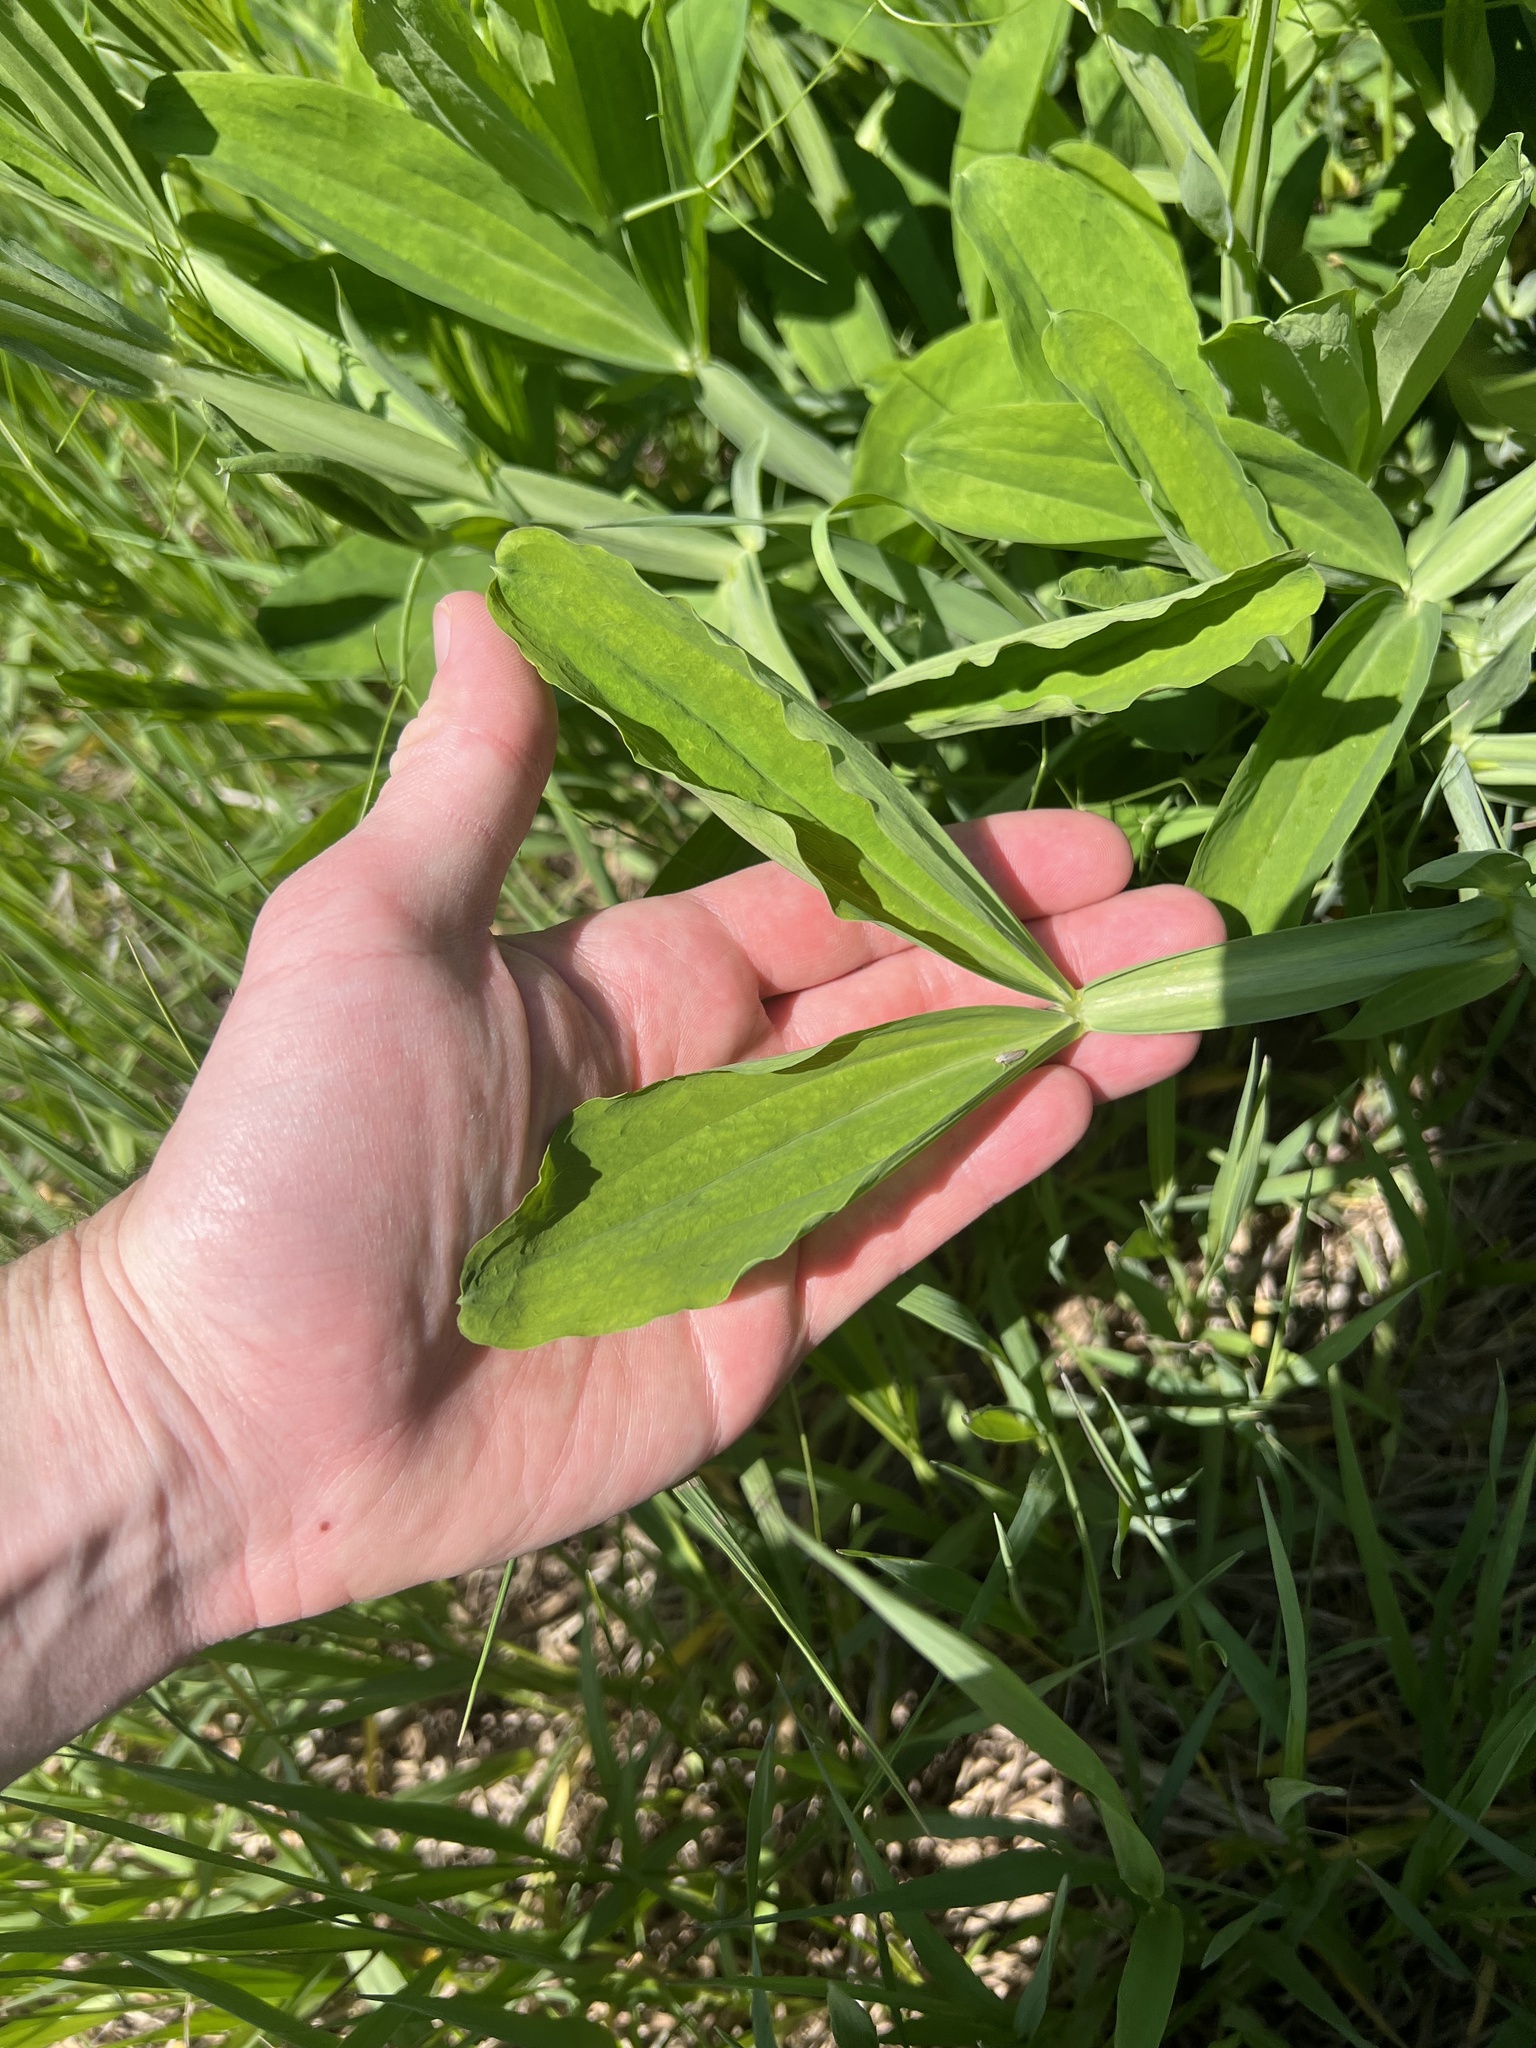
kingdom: Plantae
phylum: Tracheophyta
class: Magnoliopsida
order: Fabales
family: Fabaceae
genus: Lathyrus
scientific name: Lathyrus latifolius
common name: Perennial pea
